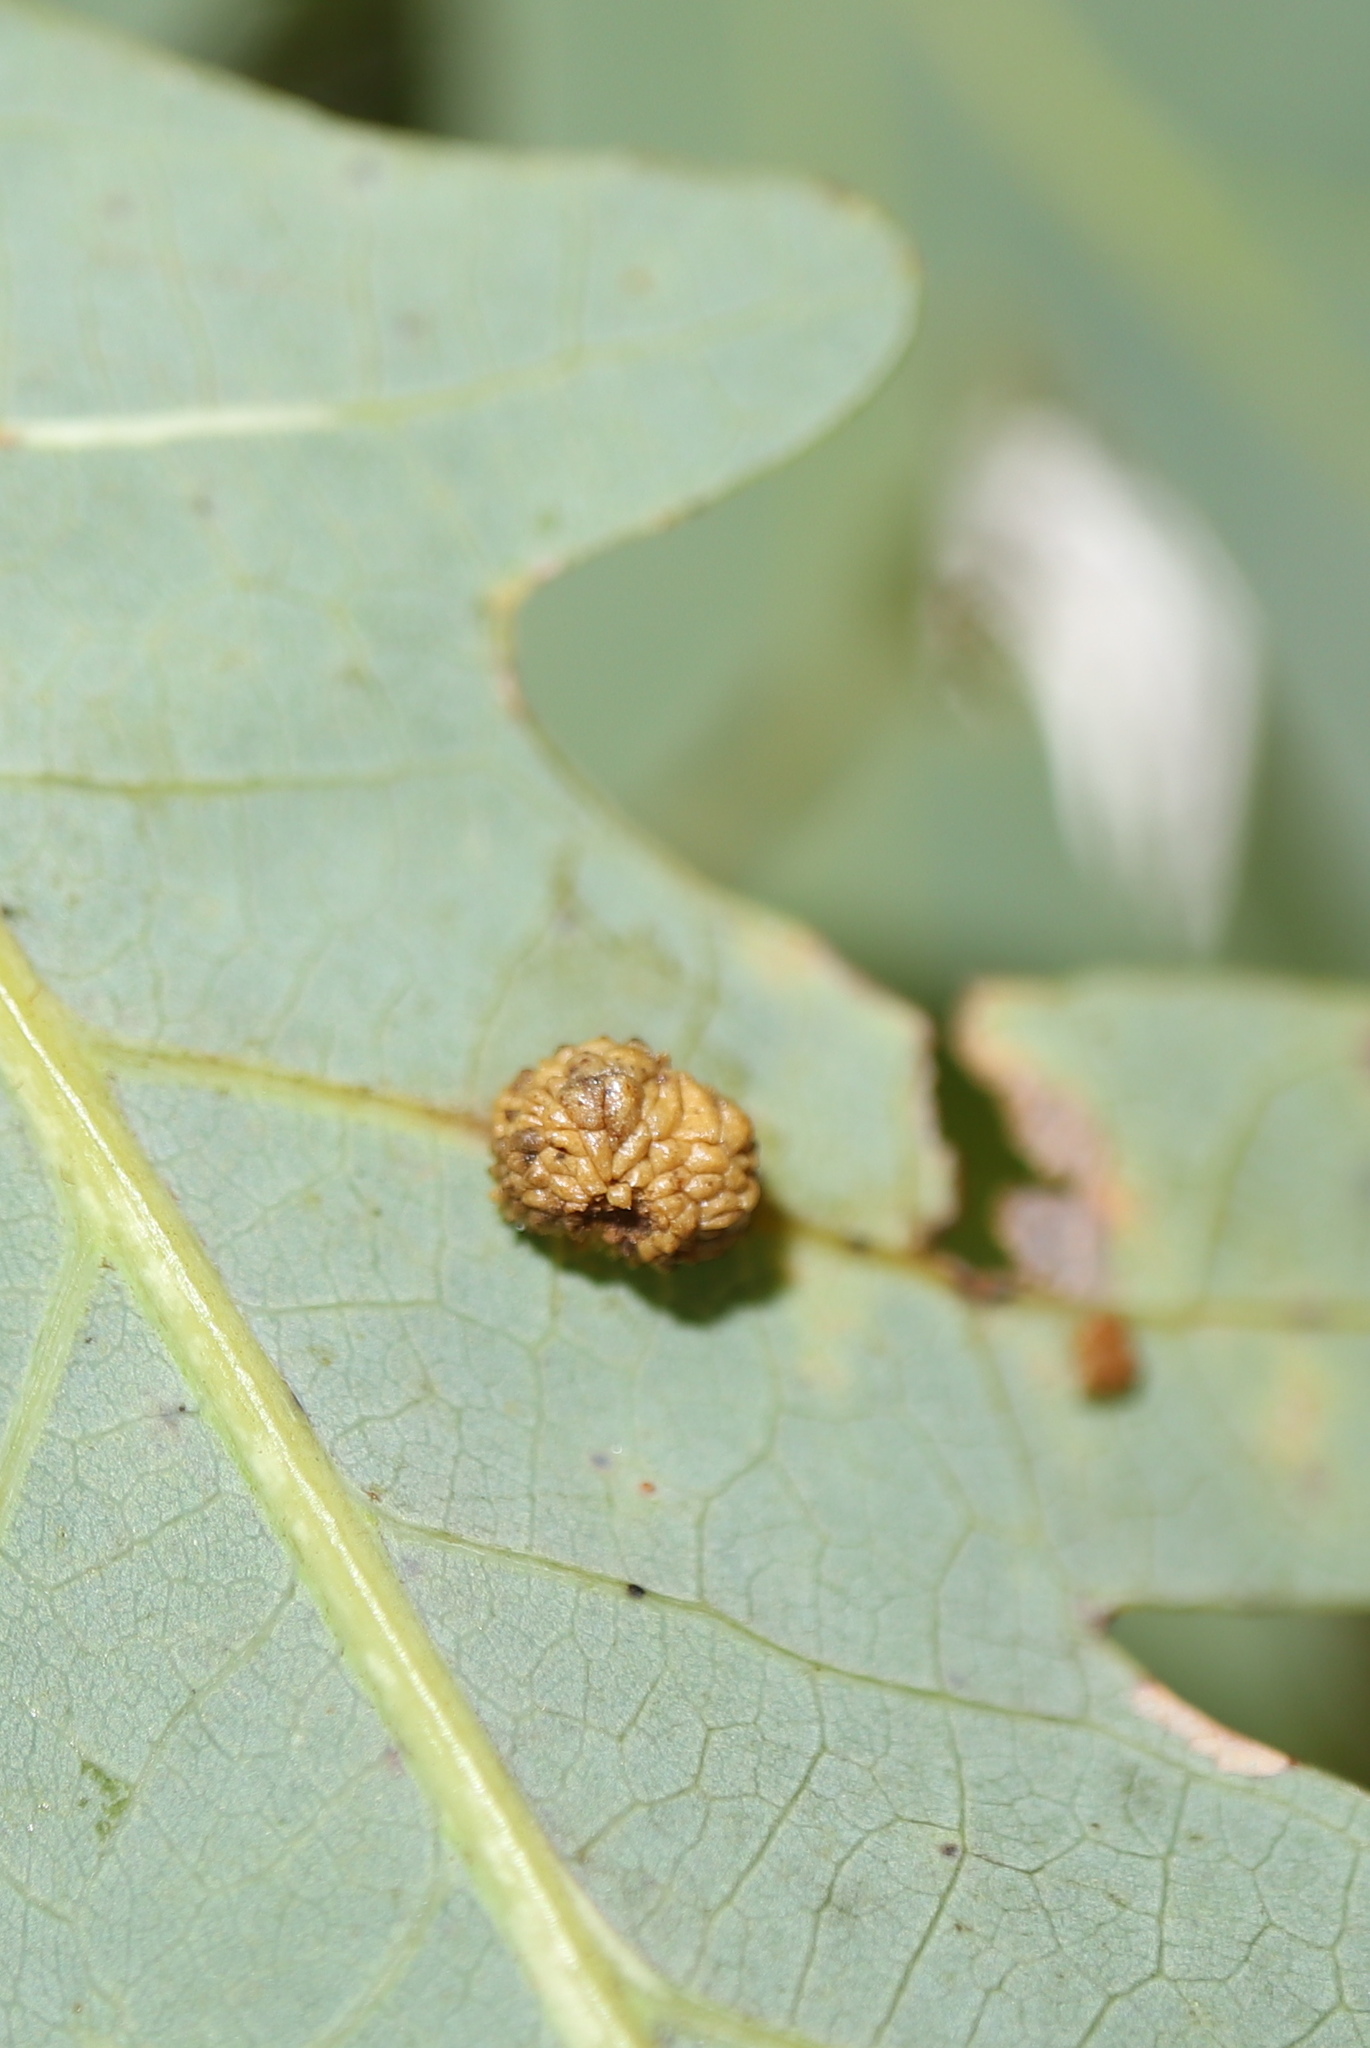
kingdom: Animalia
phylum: Arthropoda
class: Insecta
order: Hymenoptera
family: Cynipidae
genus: Acraspis
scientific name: Acraspis
